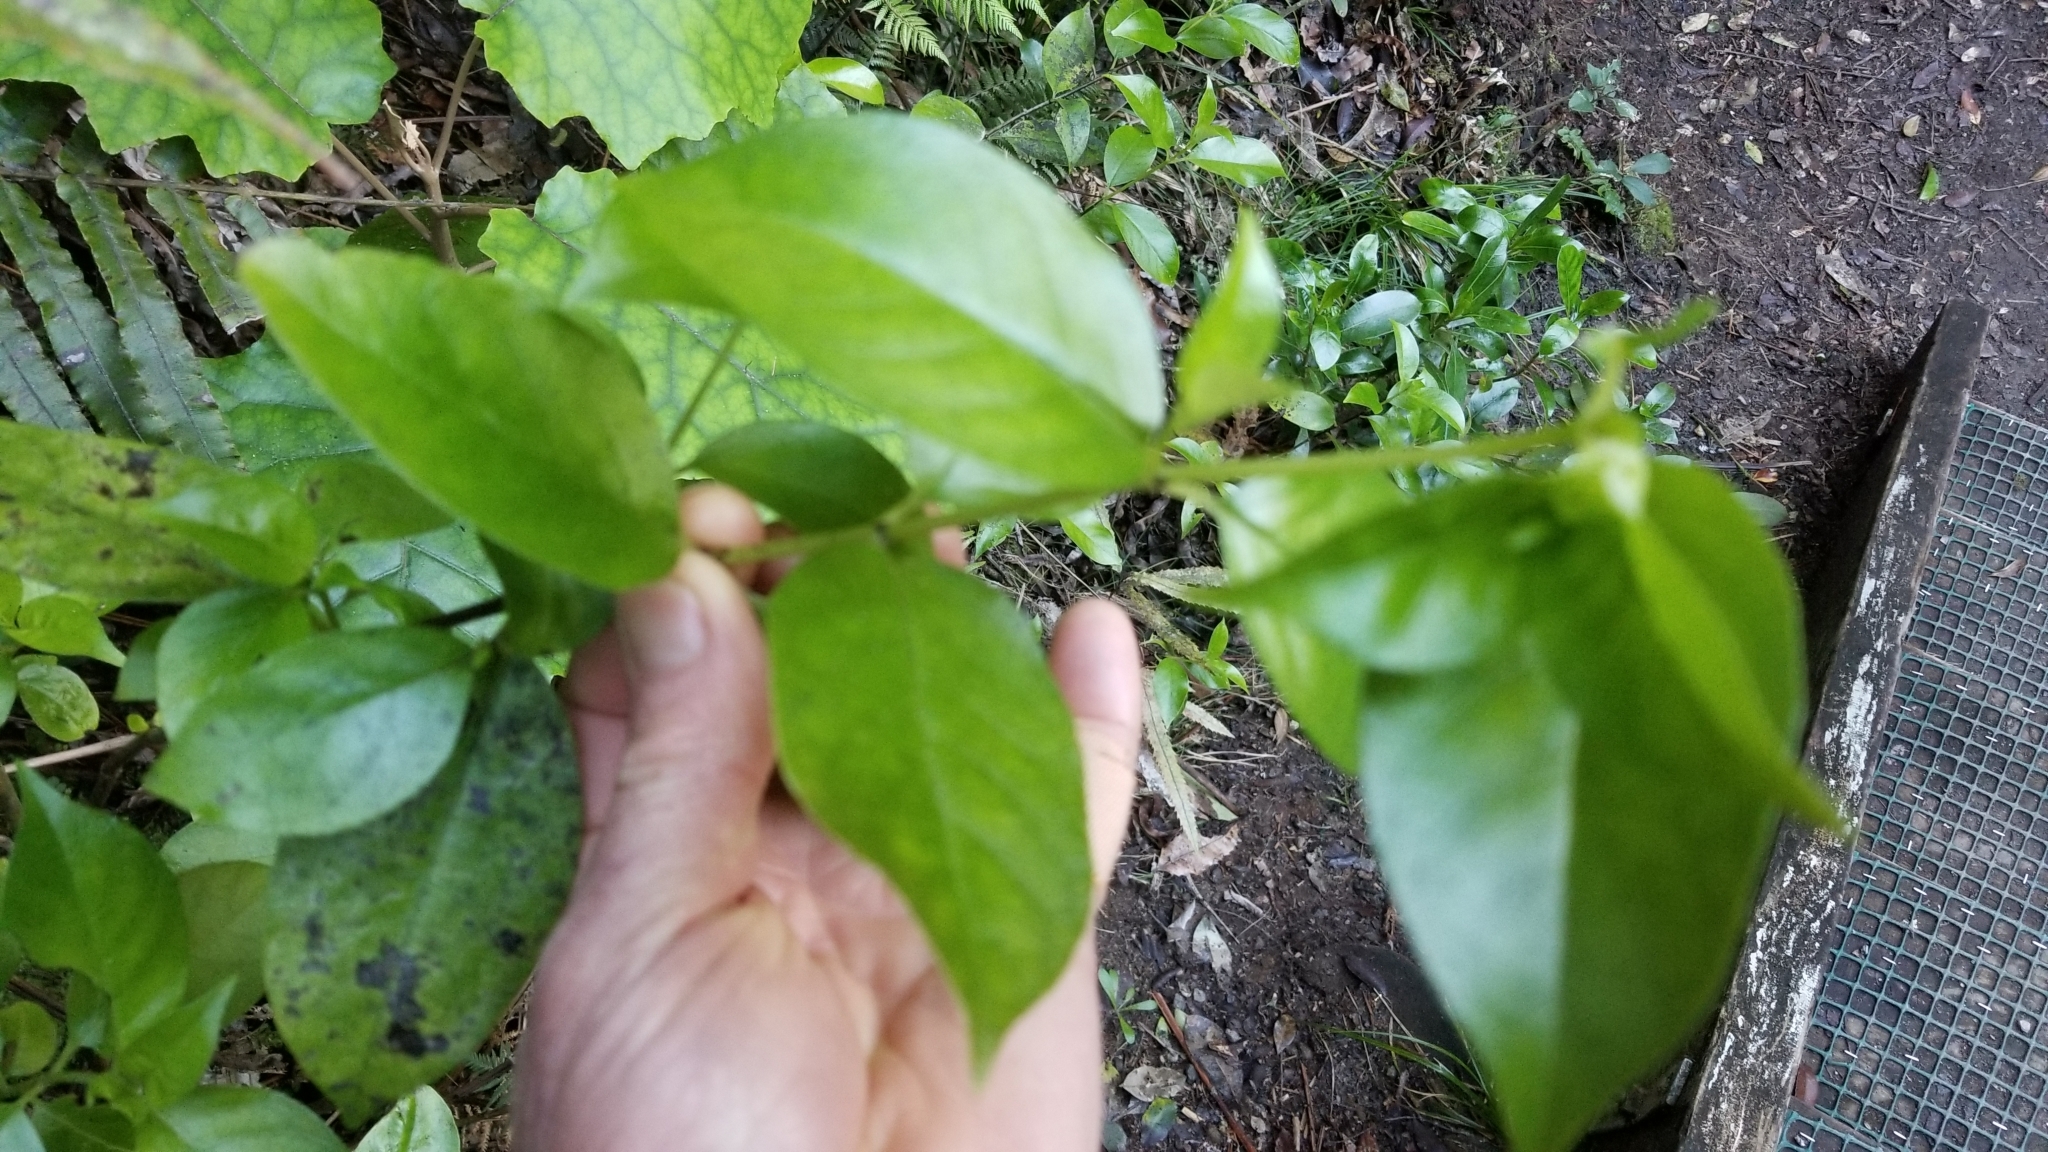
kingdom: Plantae
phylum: Tracheophyta
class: Magnoliopsida
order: Gentianales
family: Loganiaceae
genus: Geniostoma
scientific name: Geniostoma ligustrifolium
